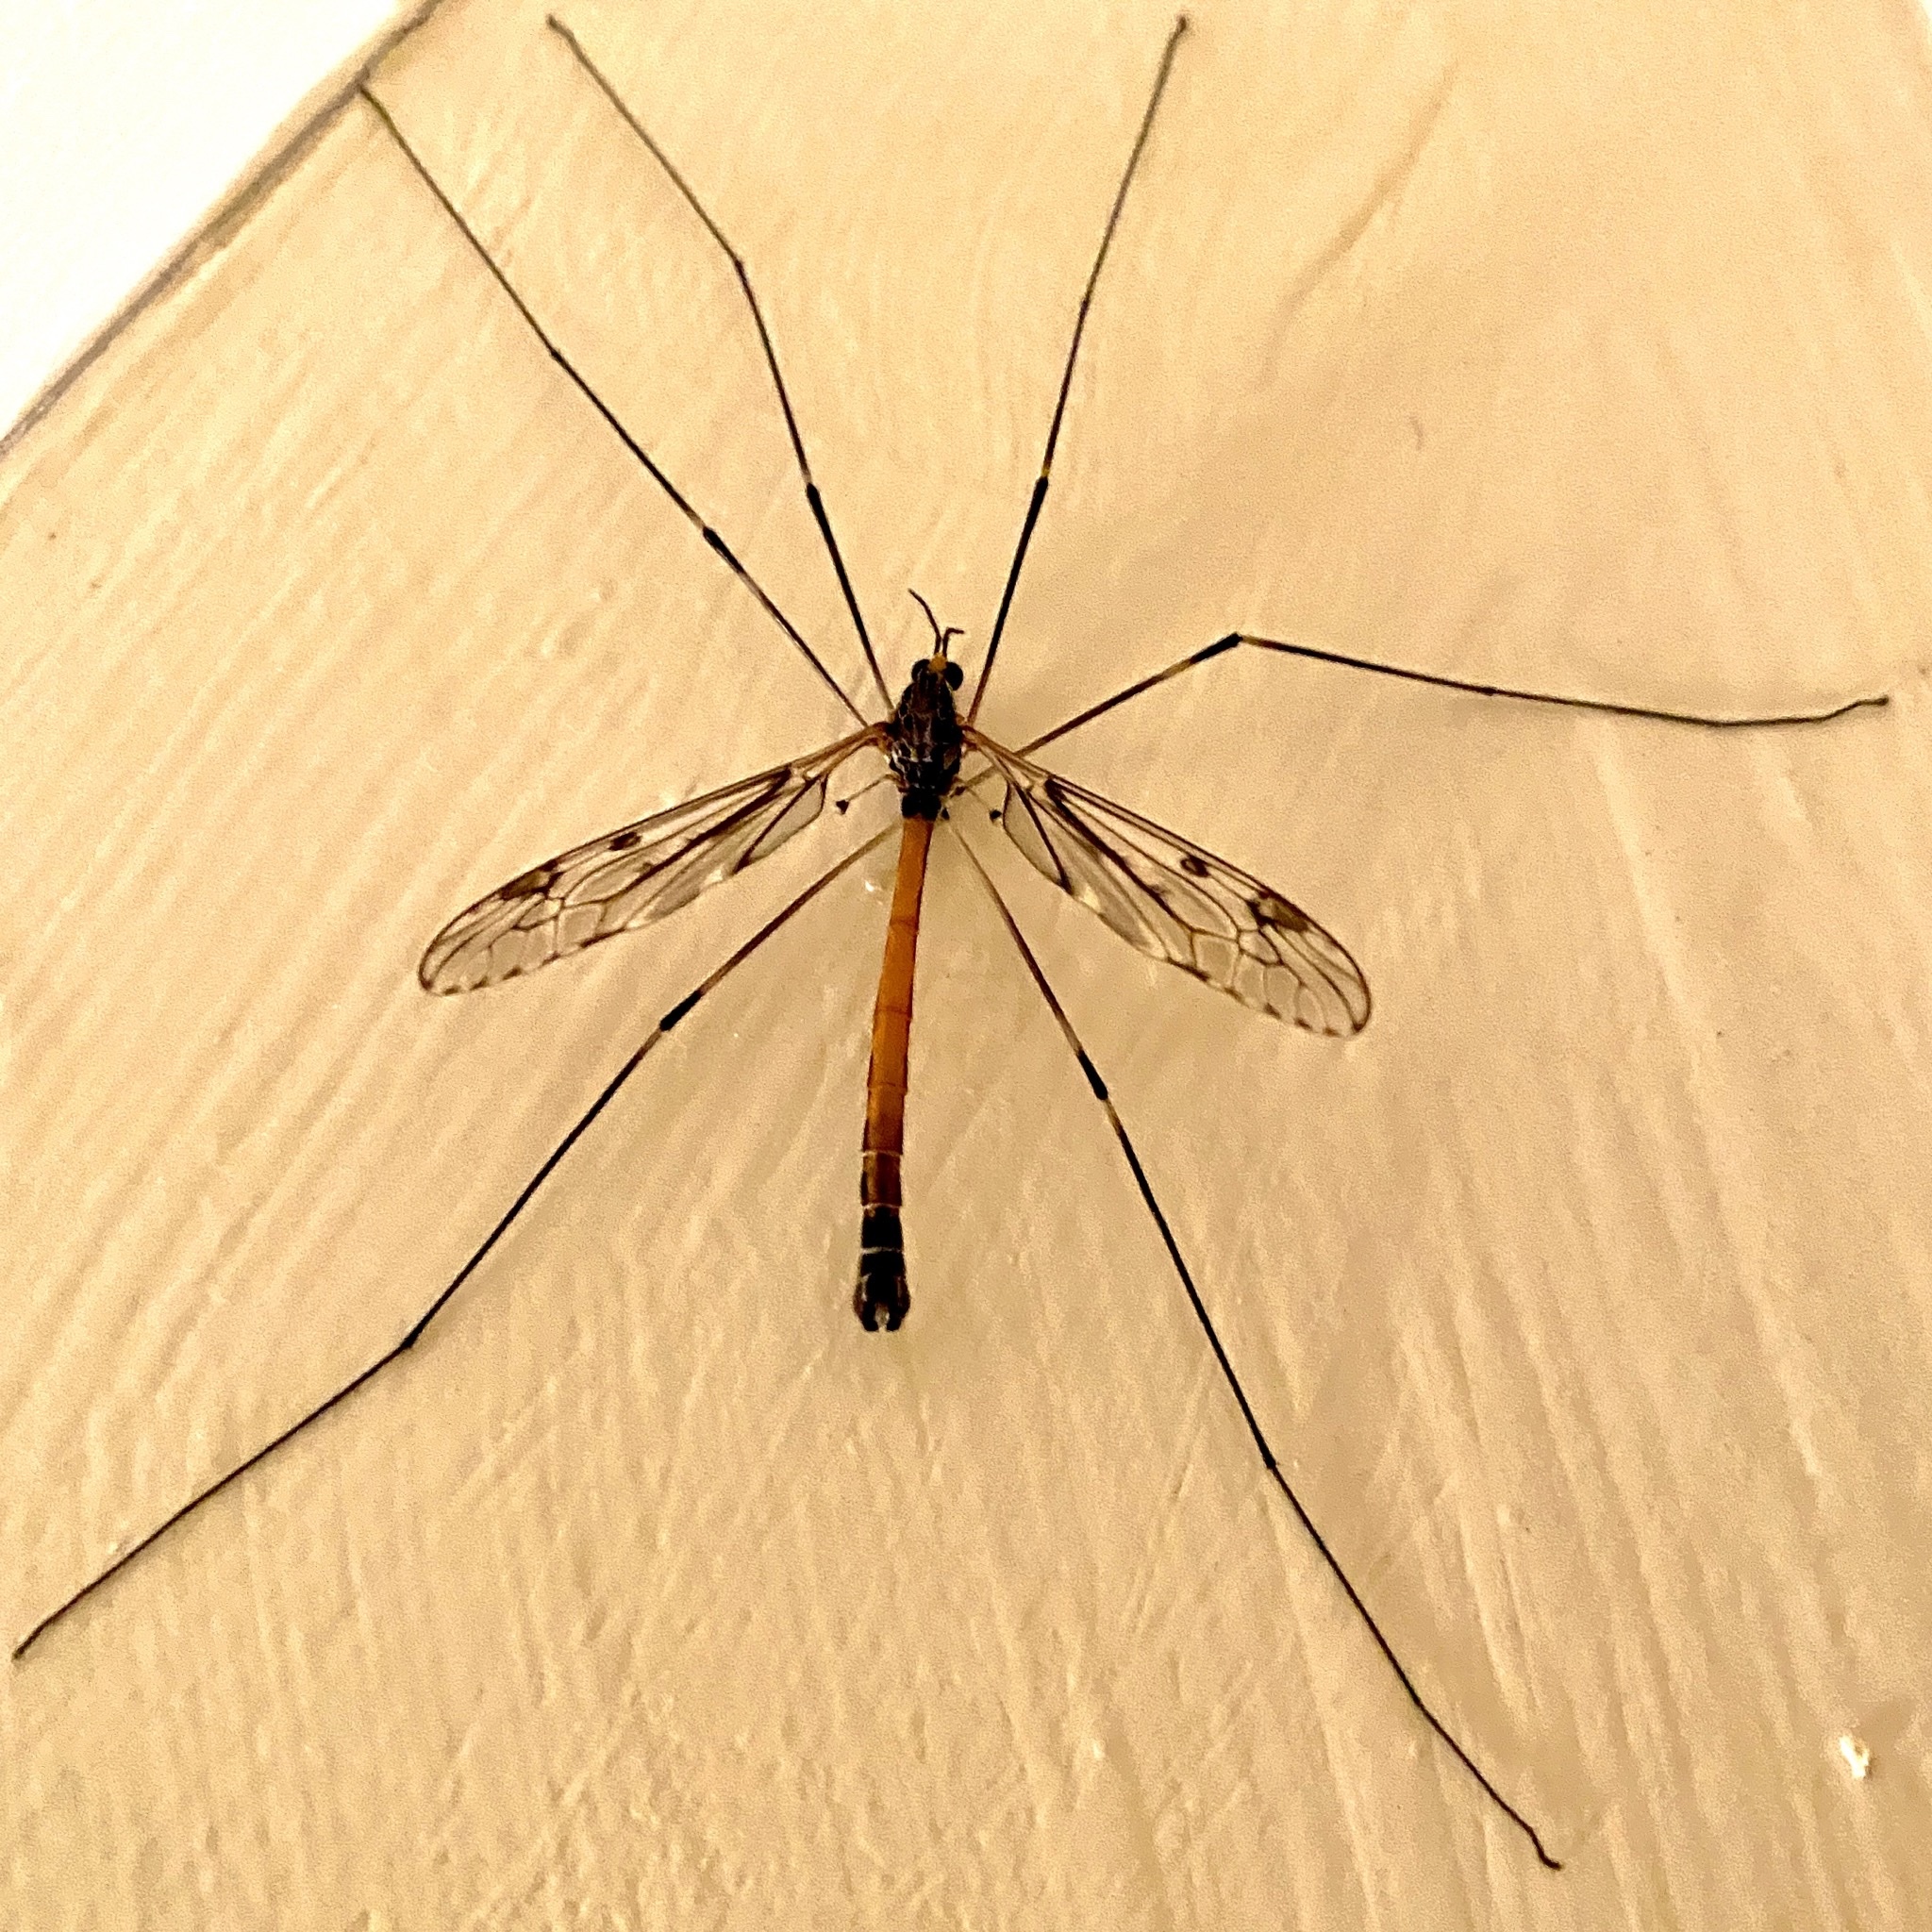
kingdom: Animalia
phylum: Arthropoda
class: Insecta
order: Diptera
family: Tipulidae
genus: Tipula
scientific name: Tipula abdominalis
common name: Giant crane fly
